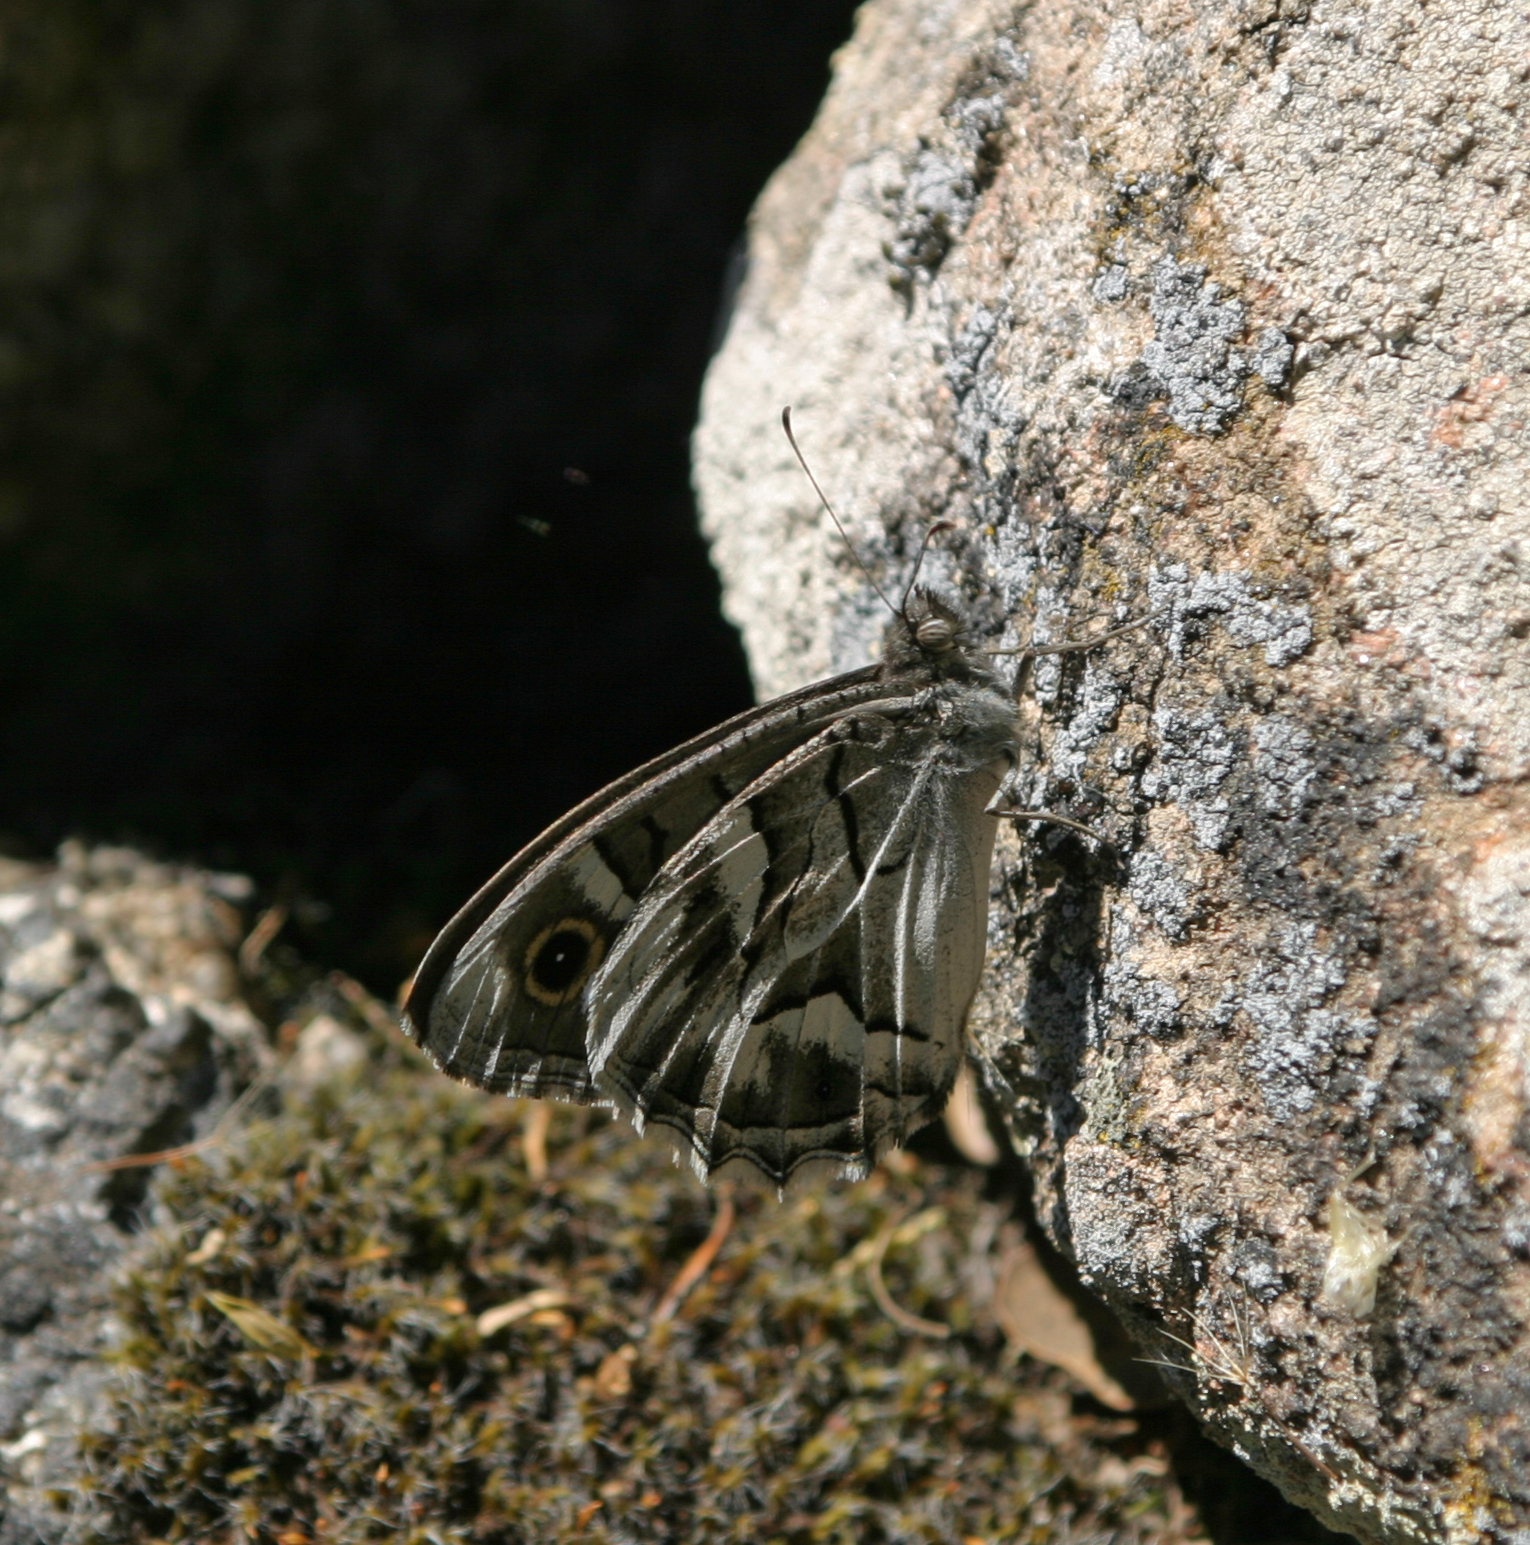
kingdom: Animalia
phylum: Arthropoda
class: Insecta
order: Lepidoptera
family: Nymphalidae
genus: Hipparchia
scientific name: Hipparchia fidia
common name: Striped grayling
